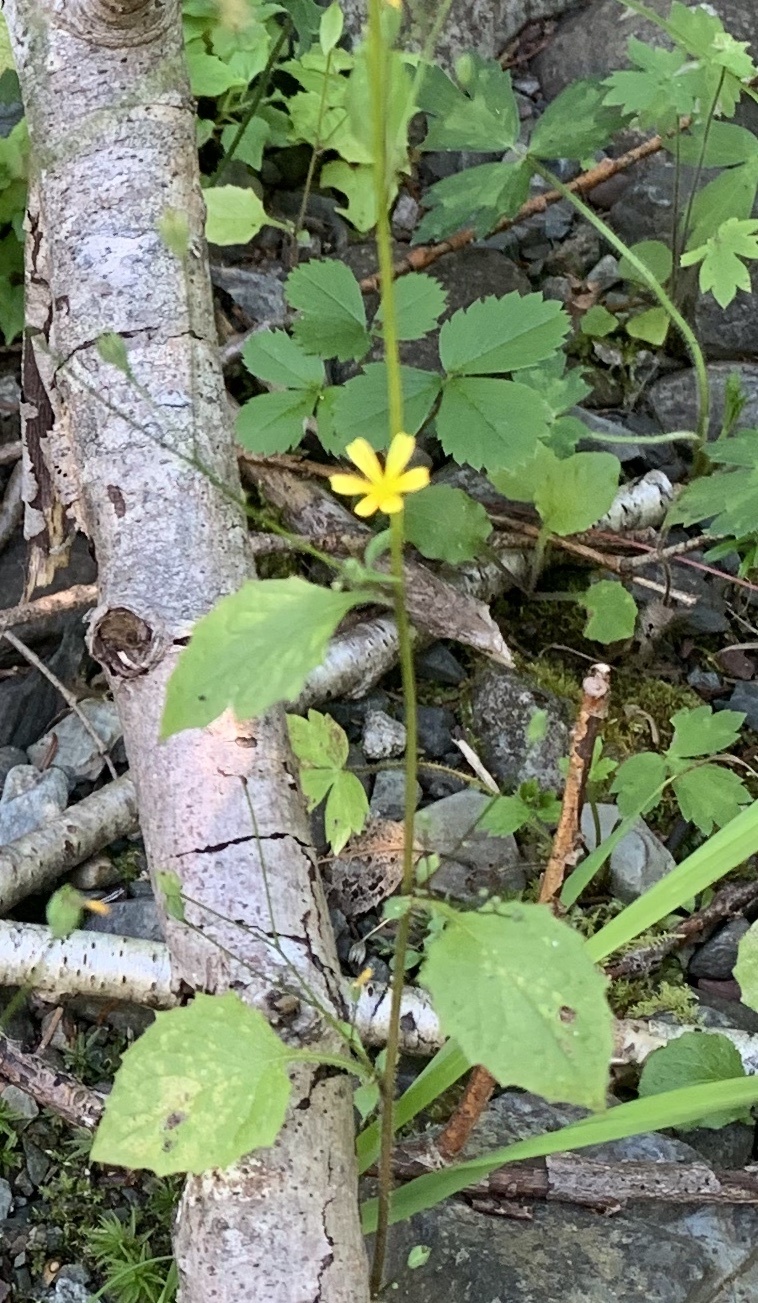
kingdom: Plantae
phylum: Tracheophyta
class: Magnoliopsida
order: Asterales
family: Asteraceae
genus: Lapsana
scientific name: Lapsana communis
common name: Nipplewort
